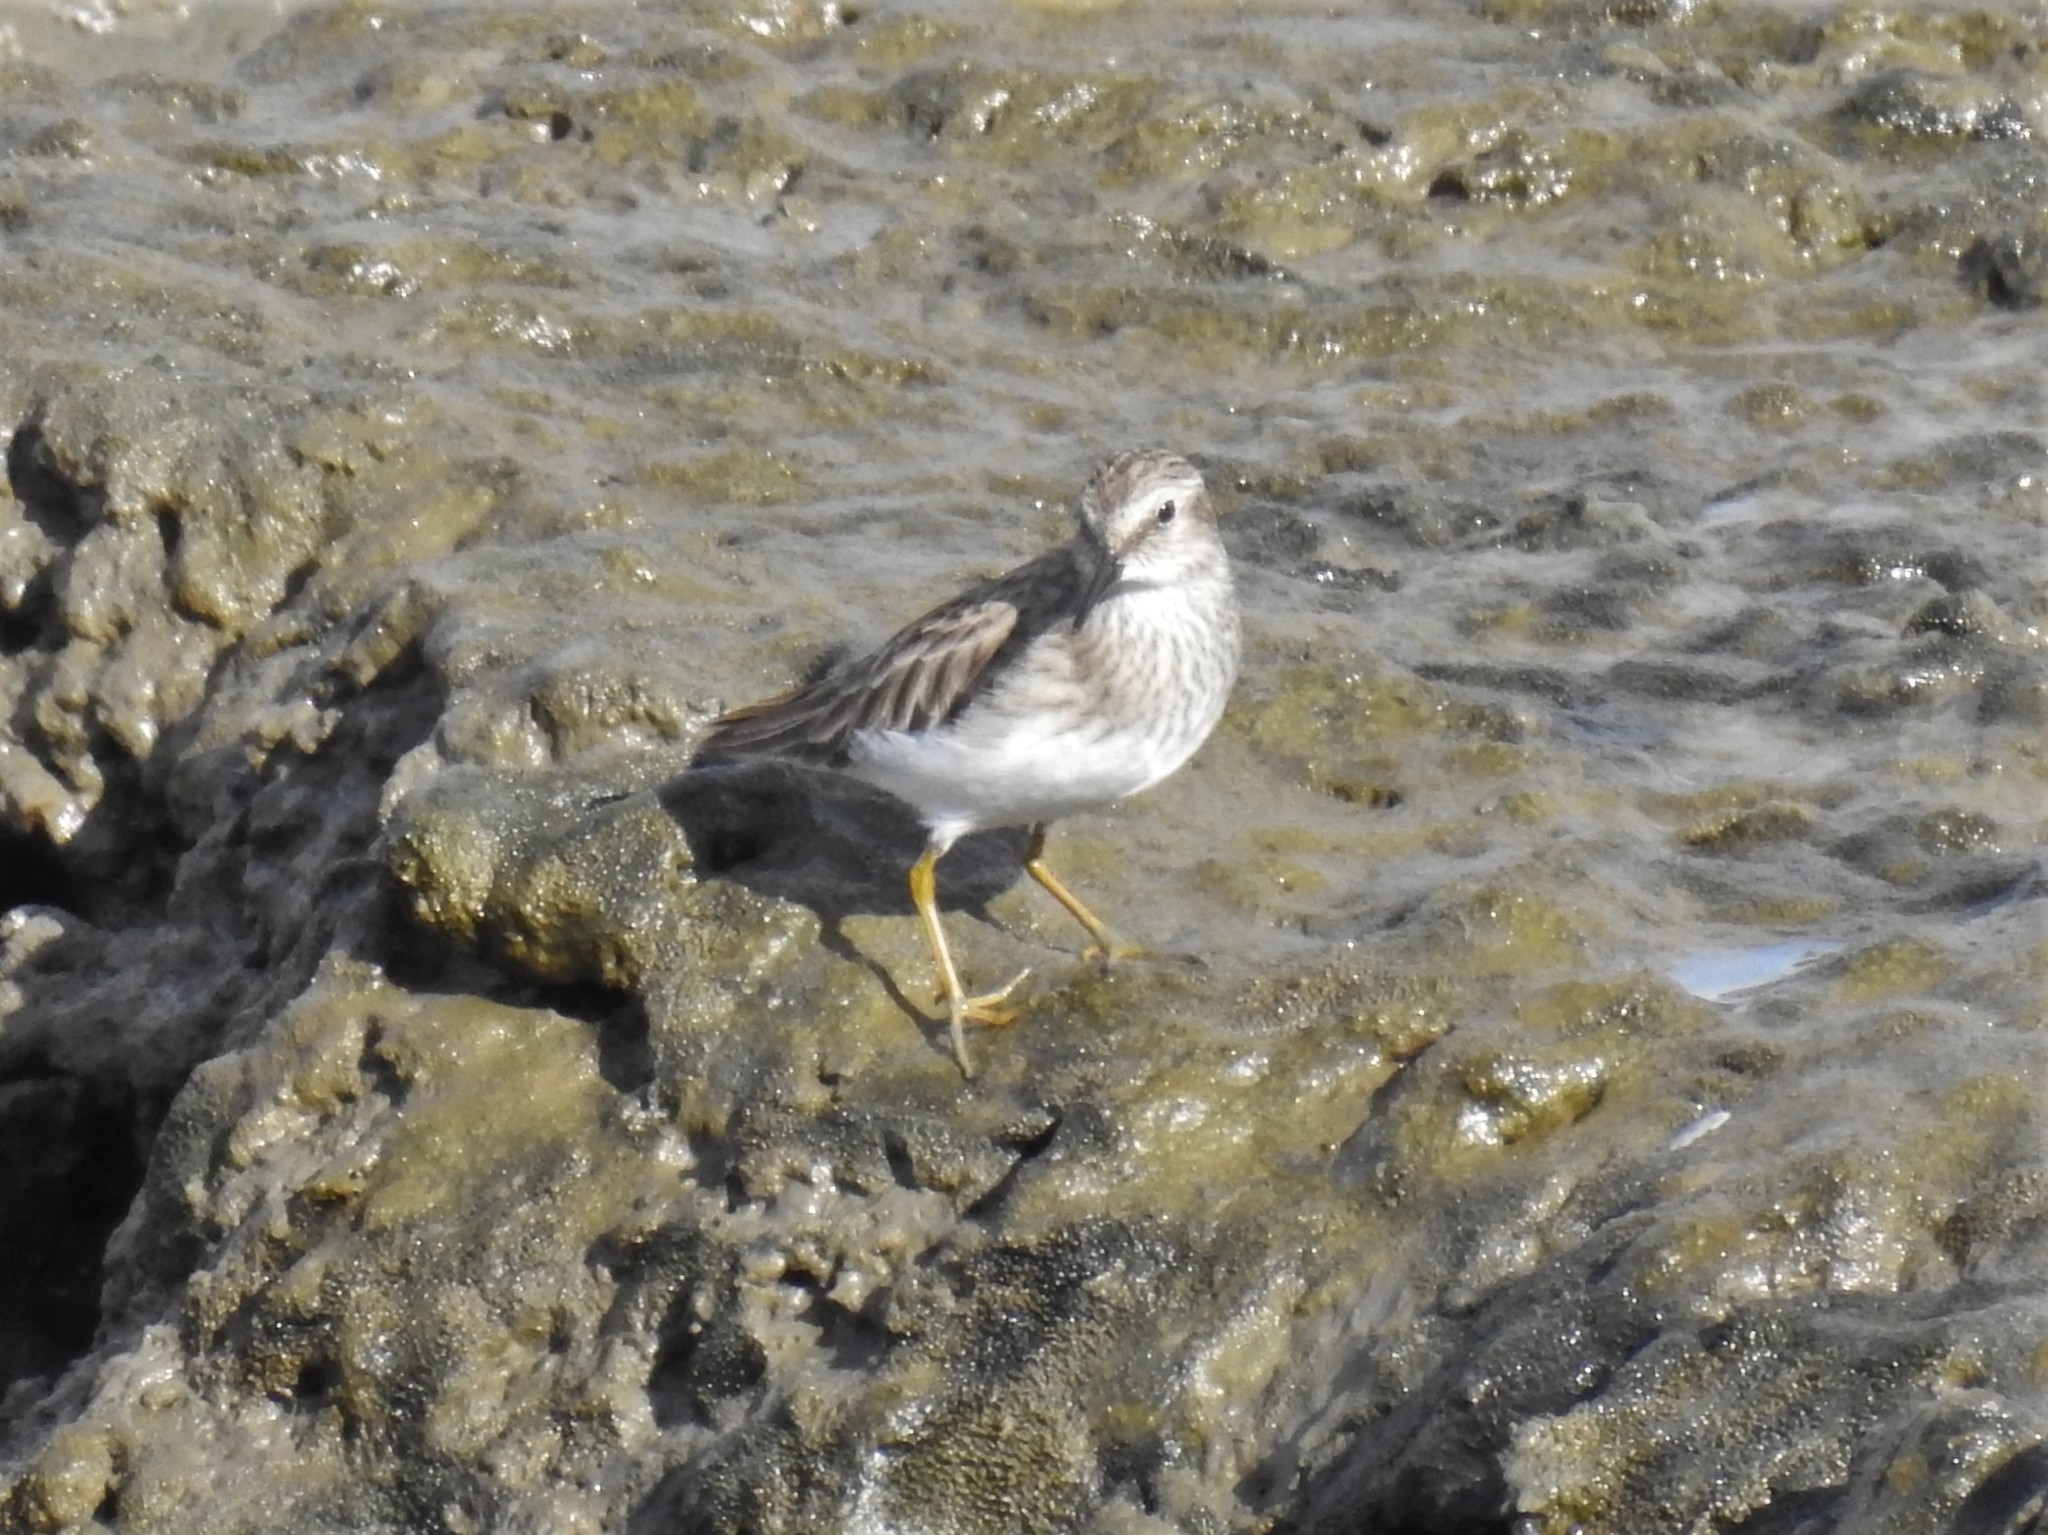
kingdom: Animalia
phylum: Chordata
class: Aves
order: Charadriiformes
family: Scolopacidae
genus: Calidris
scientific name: Calidris minutilla
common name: Least sandpiper
